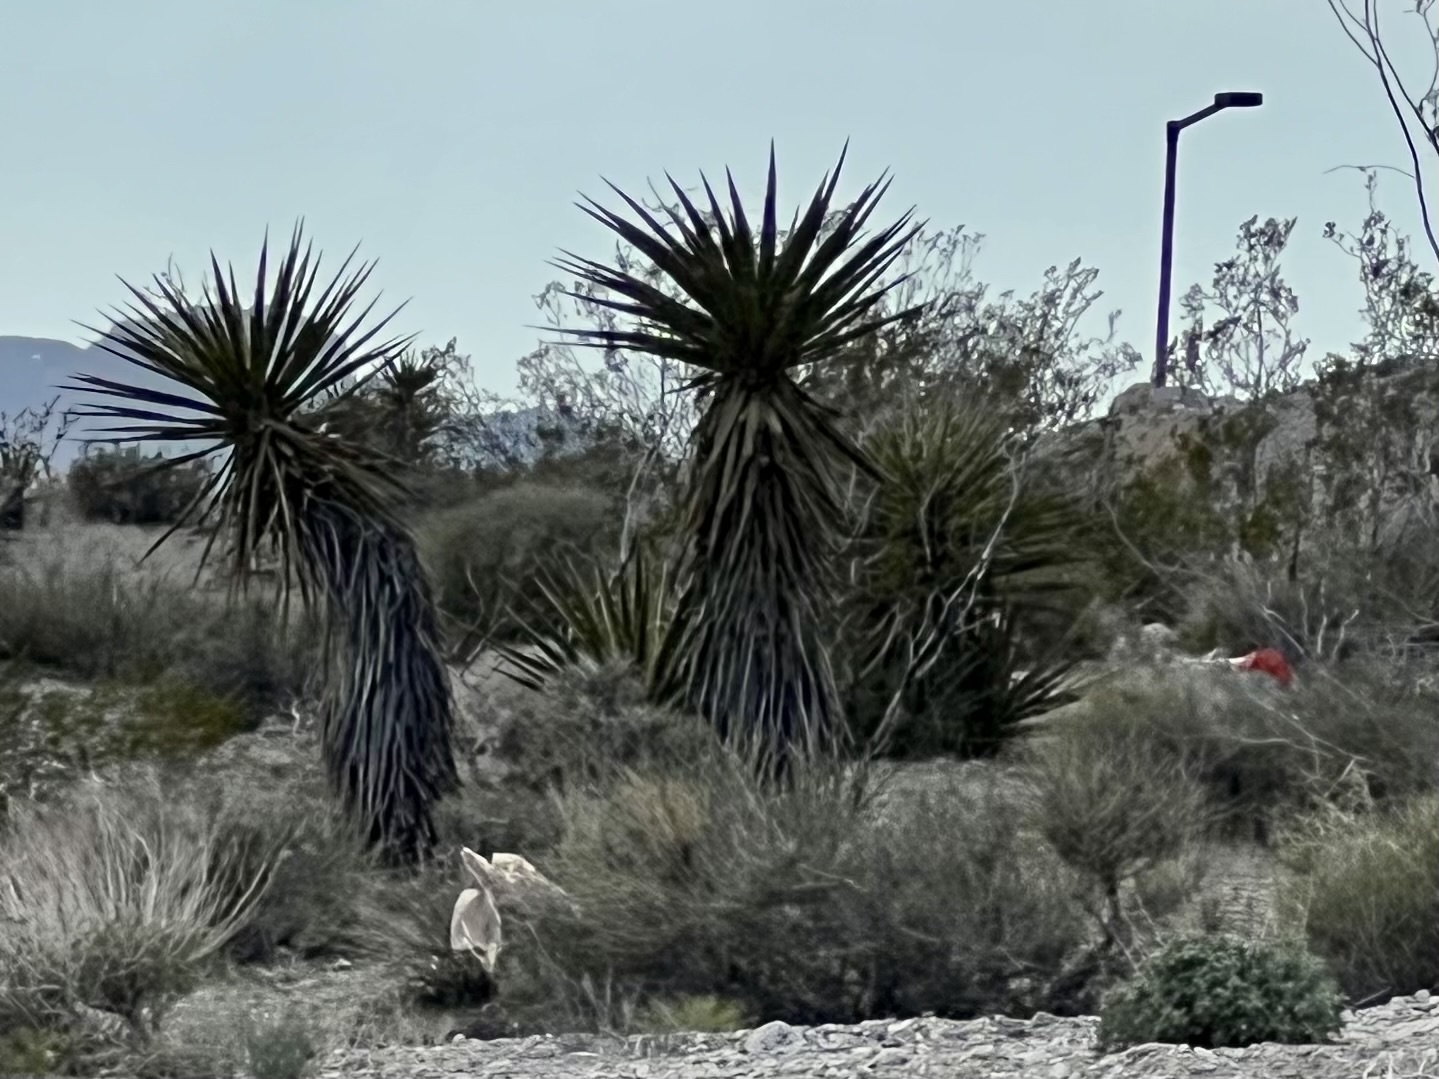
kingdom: Plantae
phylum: Tracheophyta
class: Liliopsida
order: Asparagales
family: Asparagaceae
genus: Yucca
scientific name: Yucca schidigera
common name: Mojave yucca
